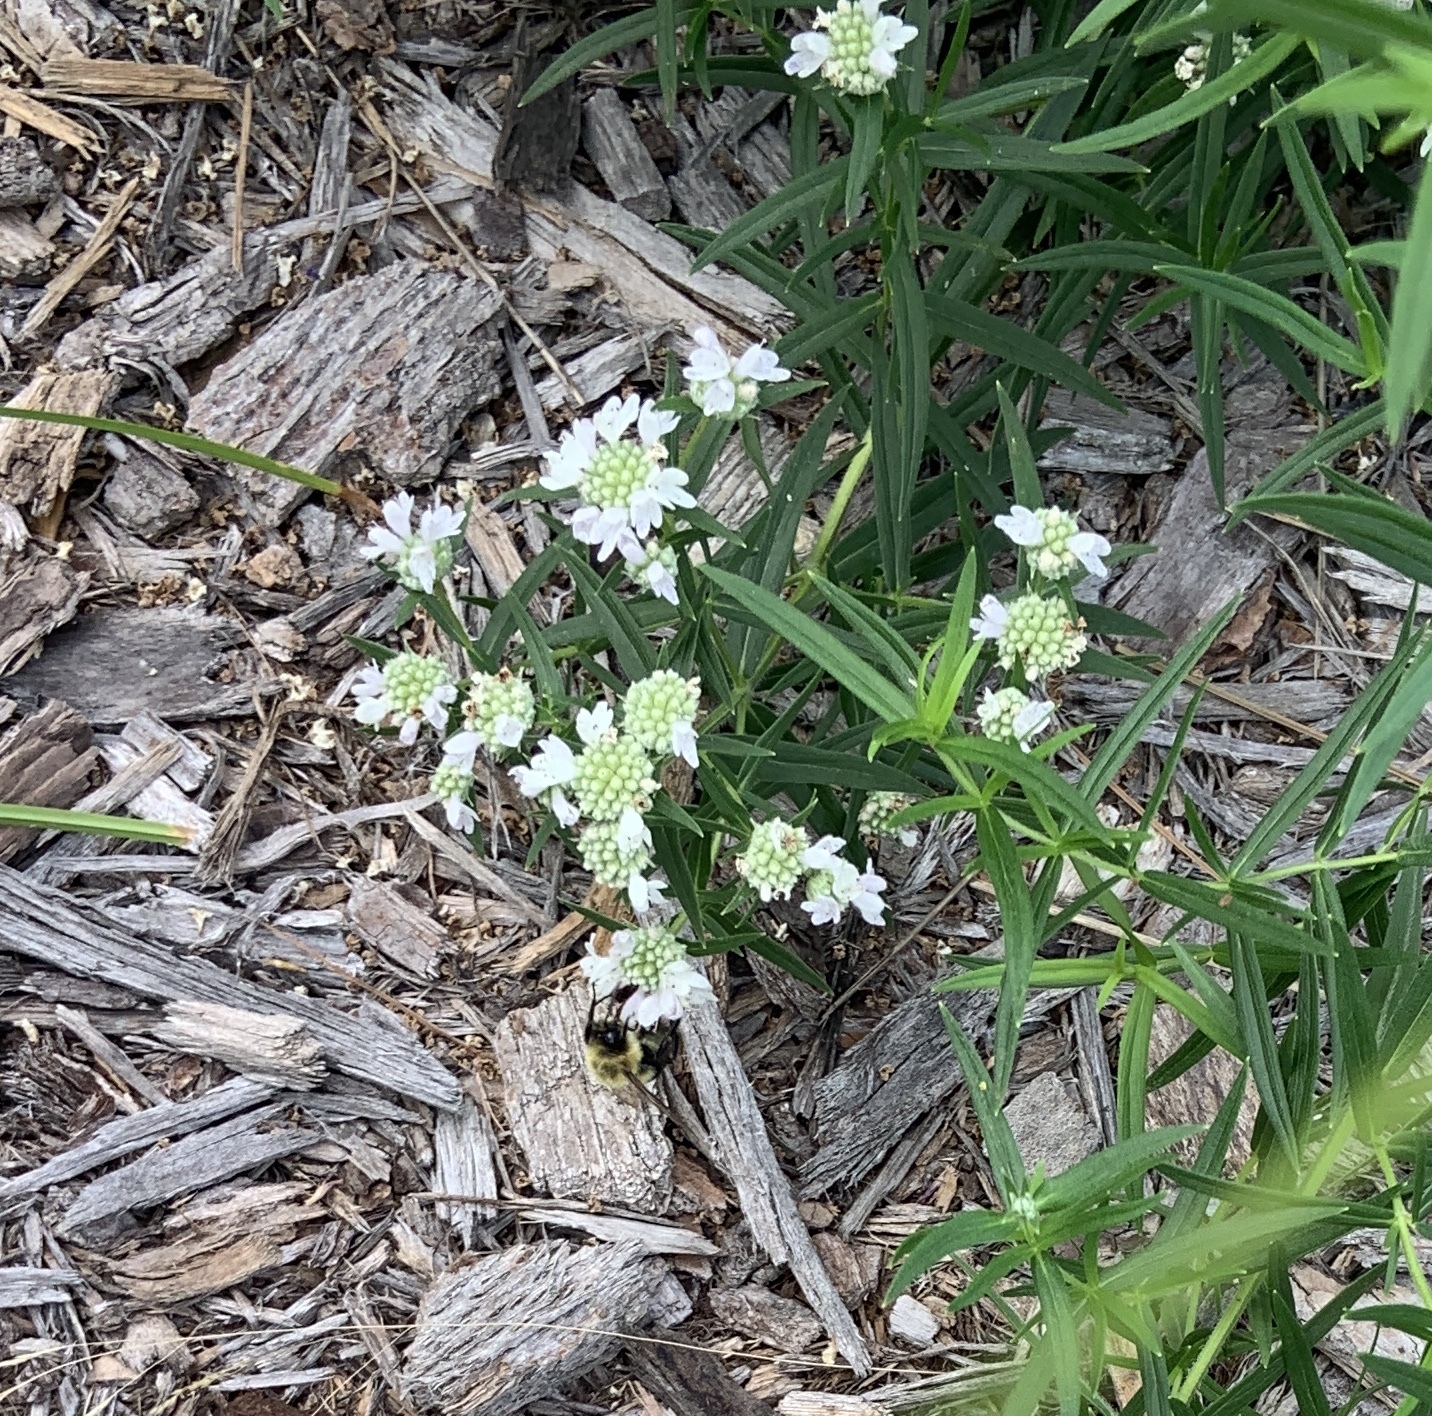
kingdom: Animalia
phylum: Arthropoda
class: Insecta
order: Hymenoptera
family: Apidae
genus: Bombus
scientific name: Bombus impatiens
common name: Common eastern bumble bee
